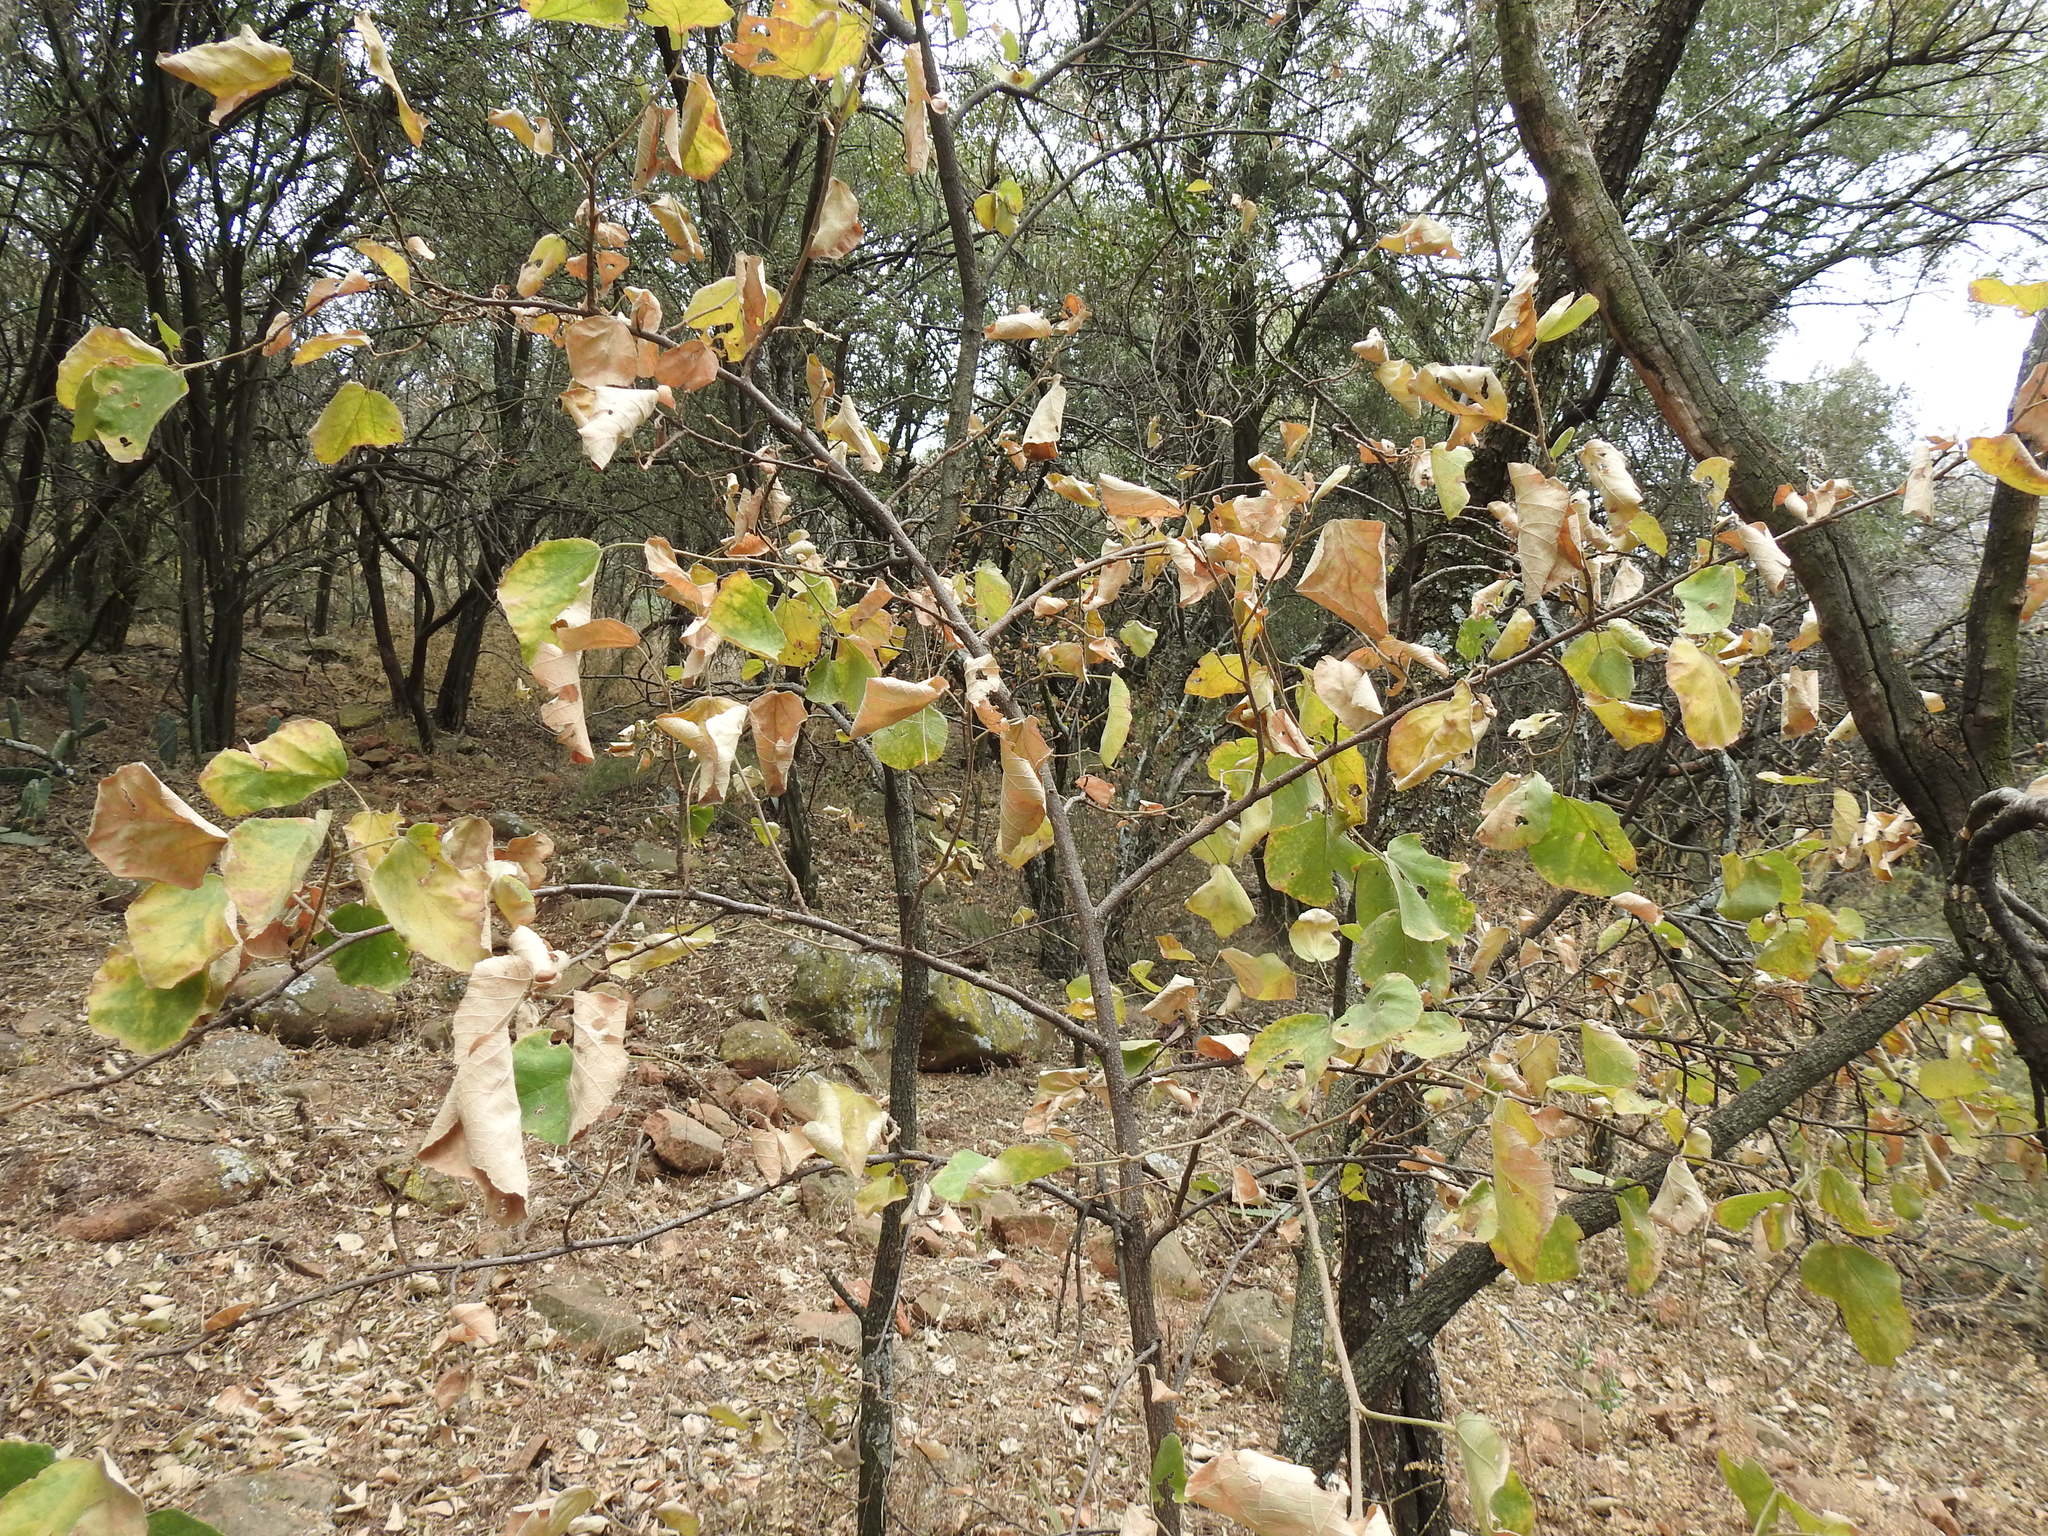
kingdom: Plantae
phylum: Tracheophyta
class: Magnoliopsida
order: Malvales
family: Malvaceae
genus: Dombeya
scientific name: Dombeya rotundifolia
